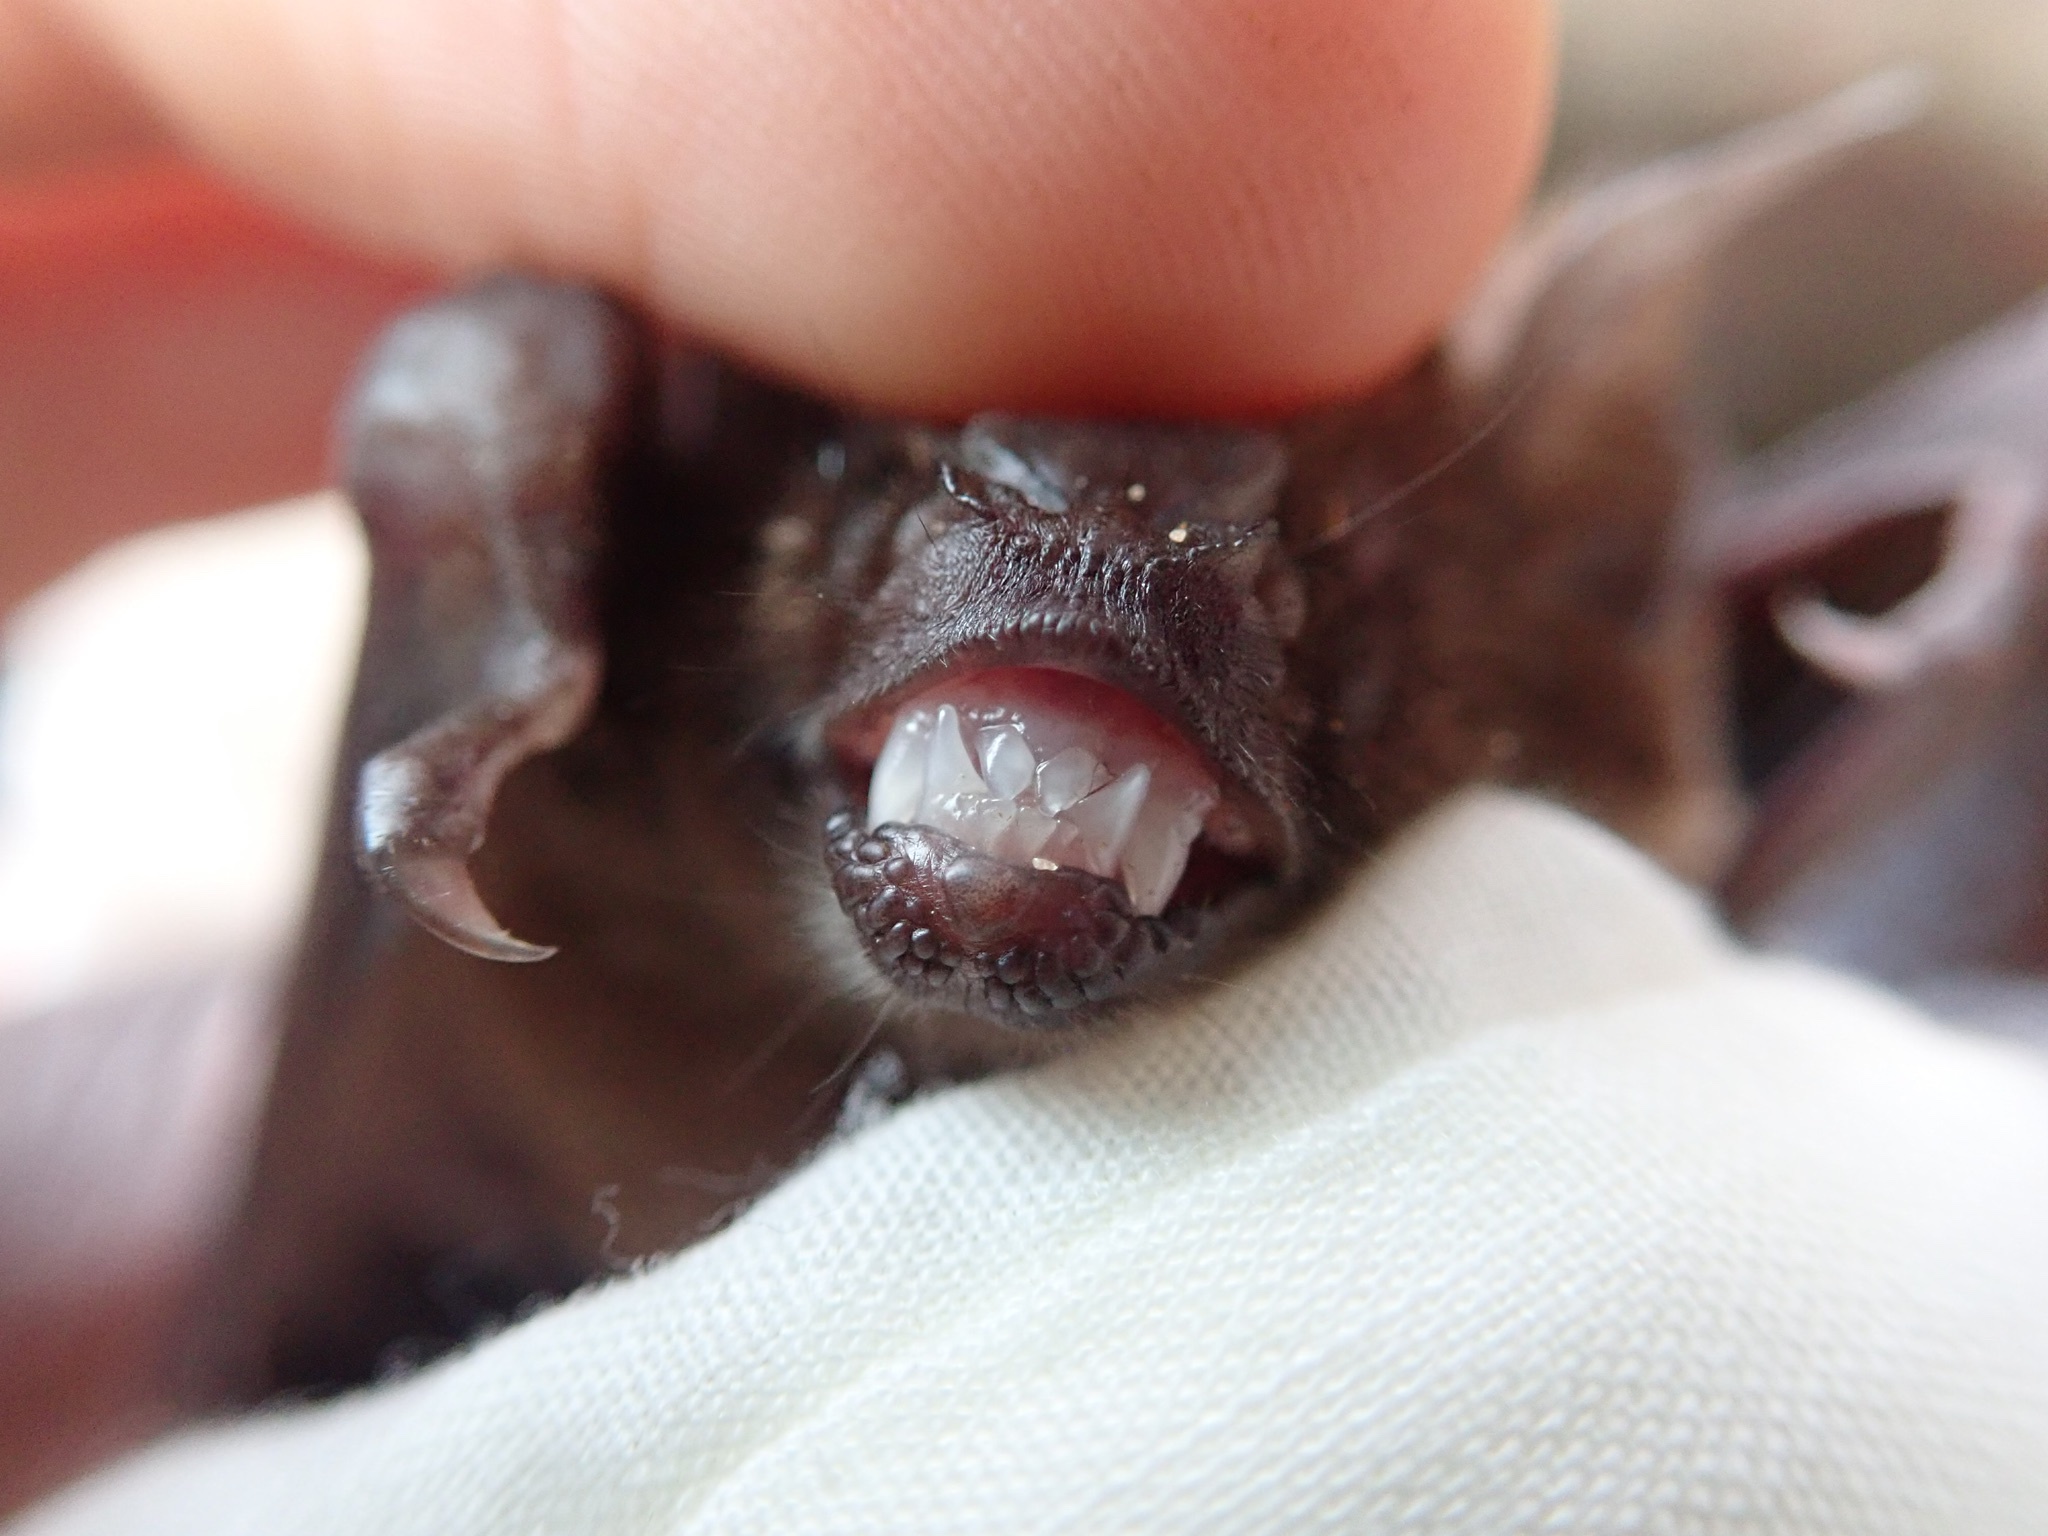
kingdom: Animalia
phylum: Chordata
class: Mammalia
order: Chiroptera
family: Phyllostomidae
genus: Carollia
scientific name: Carollia perspicillata
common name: Seba's short-tailed bat
